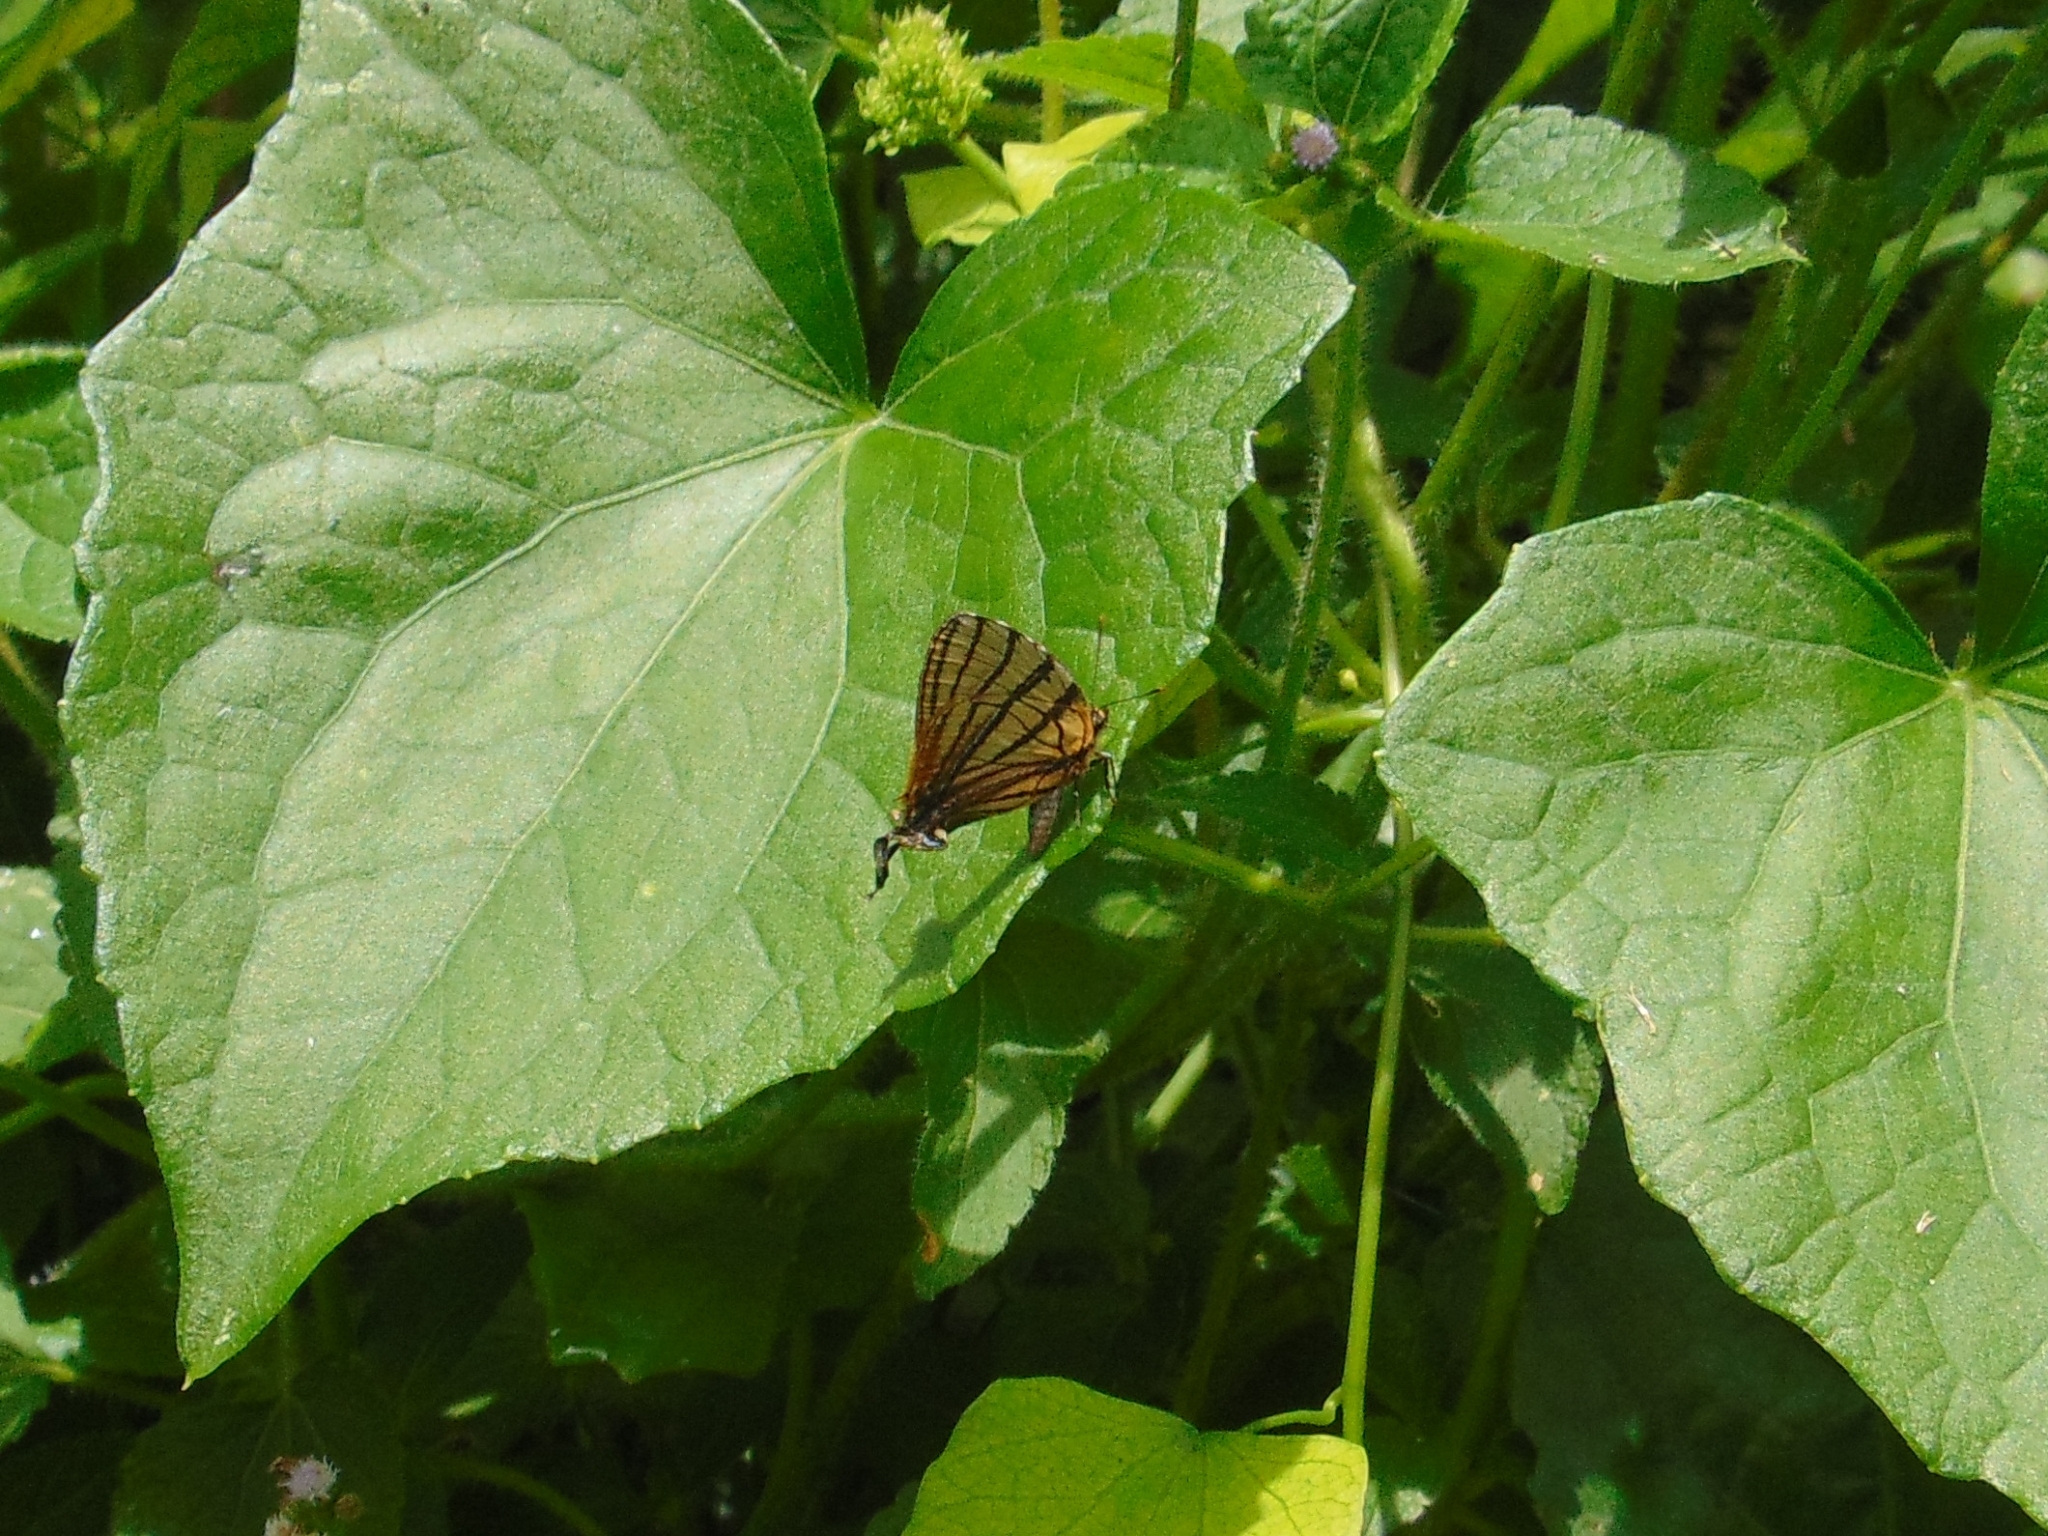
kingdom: Animalia
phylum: Arthropoda
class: Insecta
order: Lepidoptera
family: Lycaenidae
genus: Arawacus
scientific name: Arawacus melibaeus
